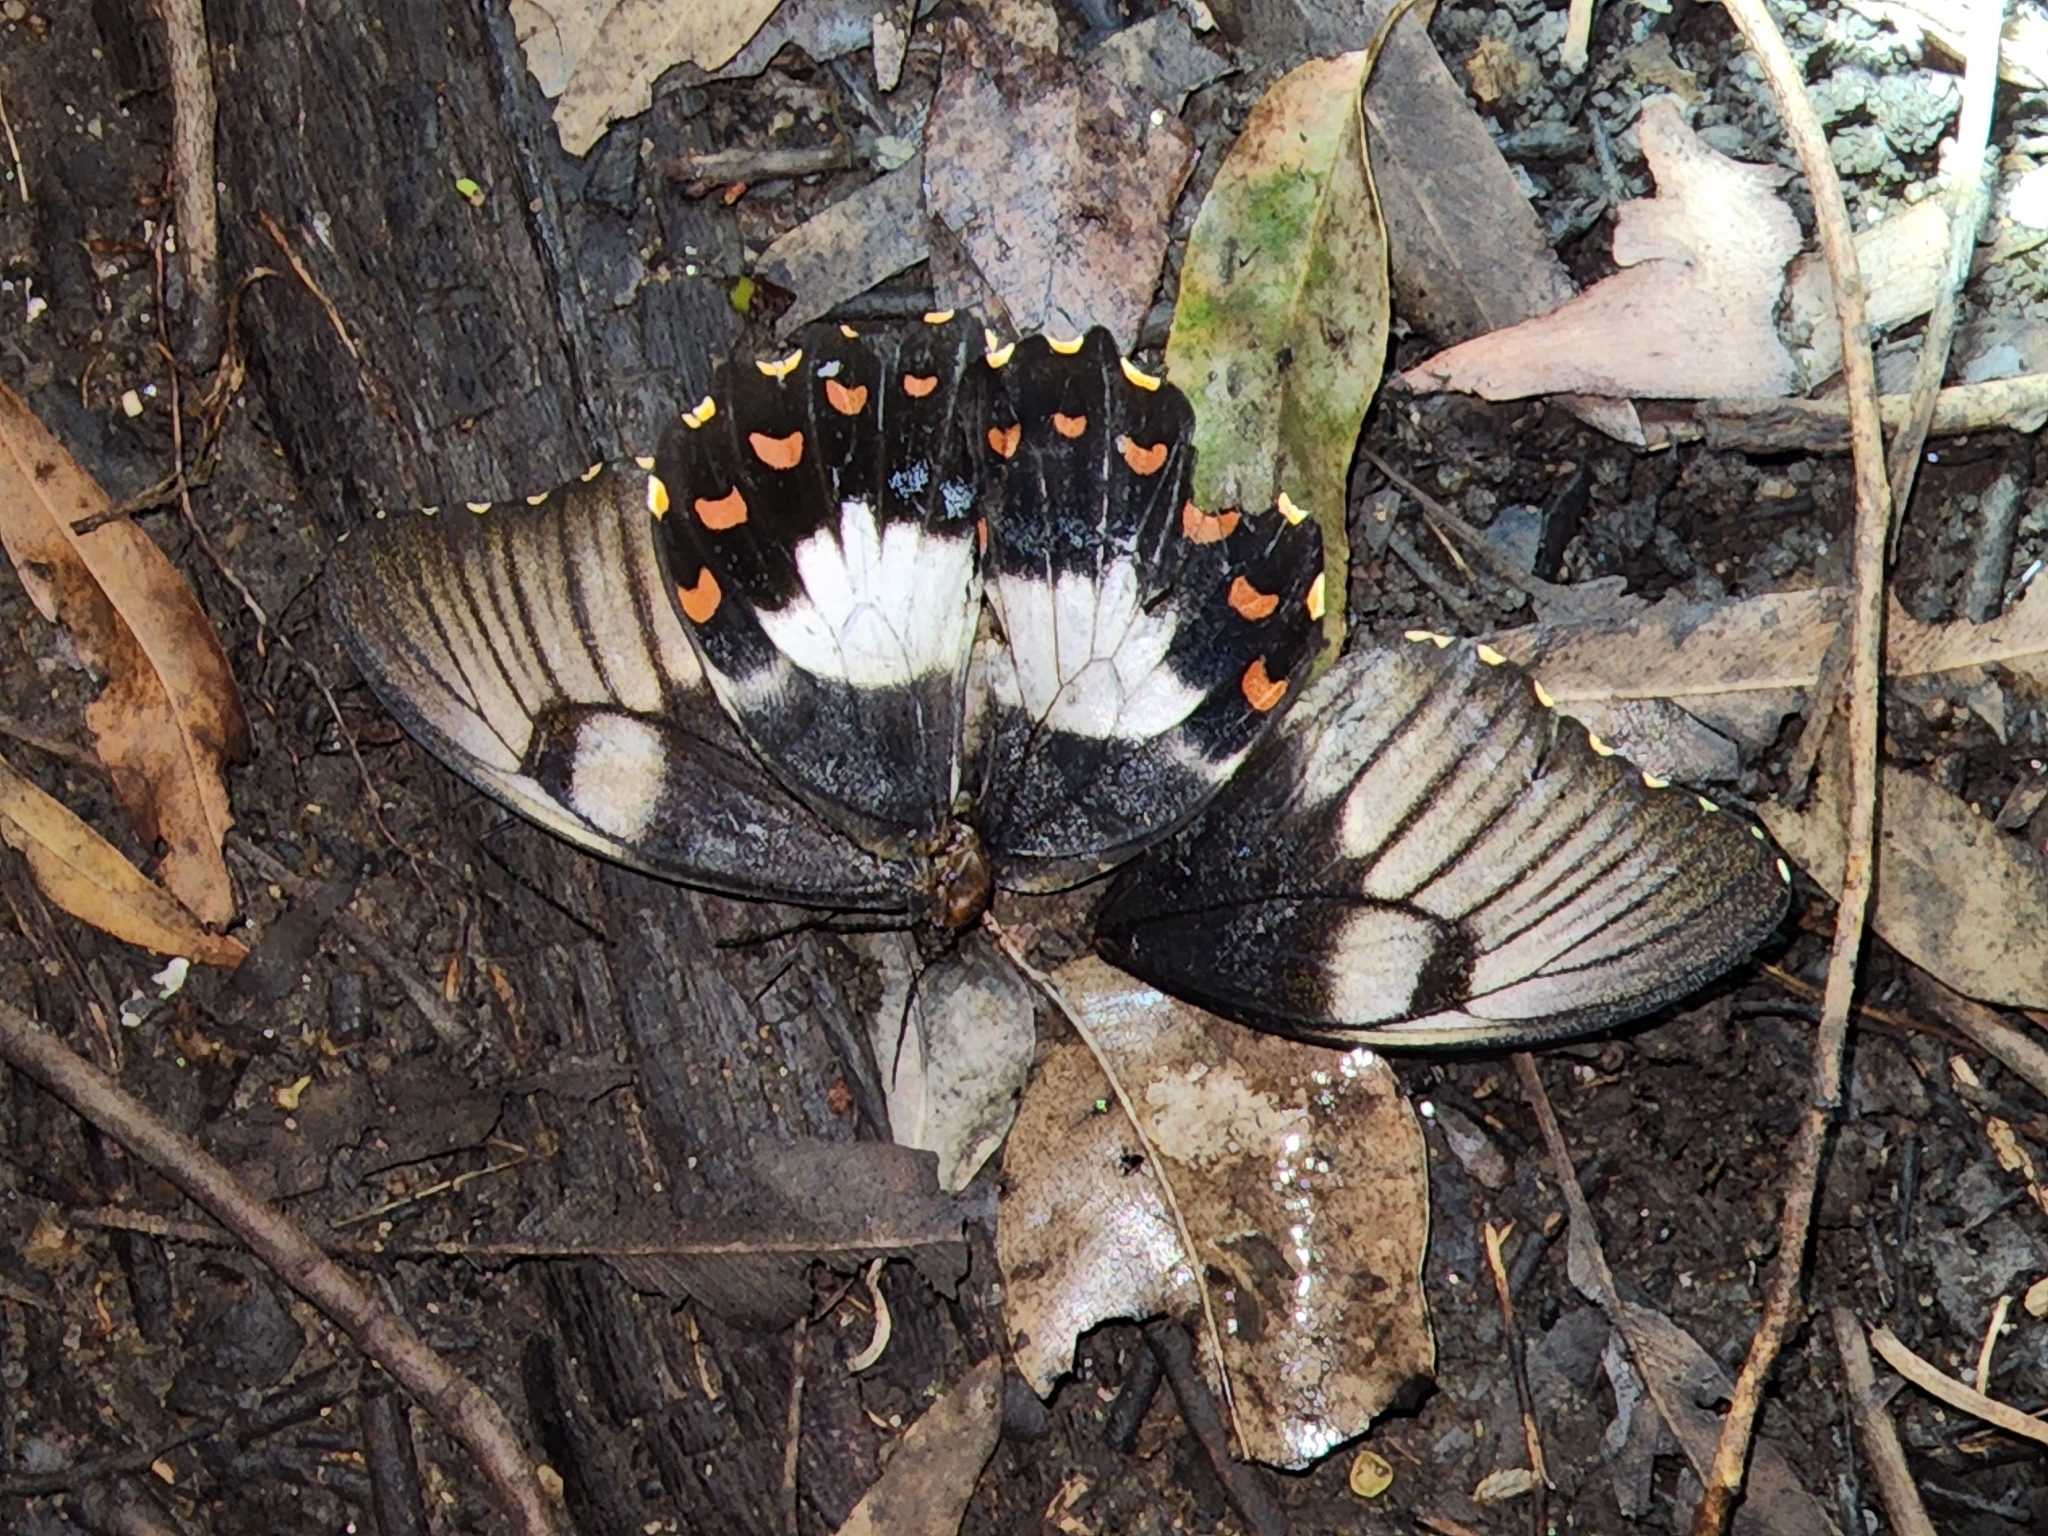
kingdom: Animalia
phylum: Arthropoda
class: Insecta
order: Lepidoptera
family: Papilionidae
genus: Papilio
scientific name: Papilio aegeus
